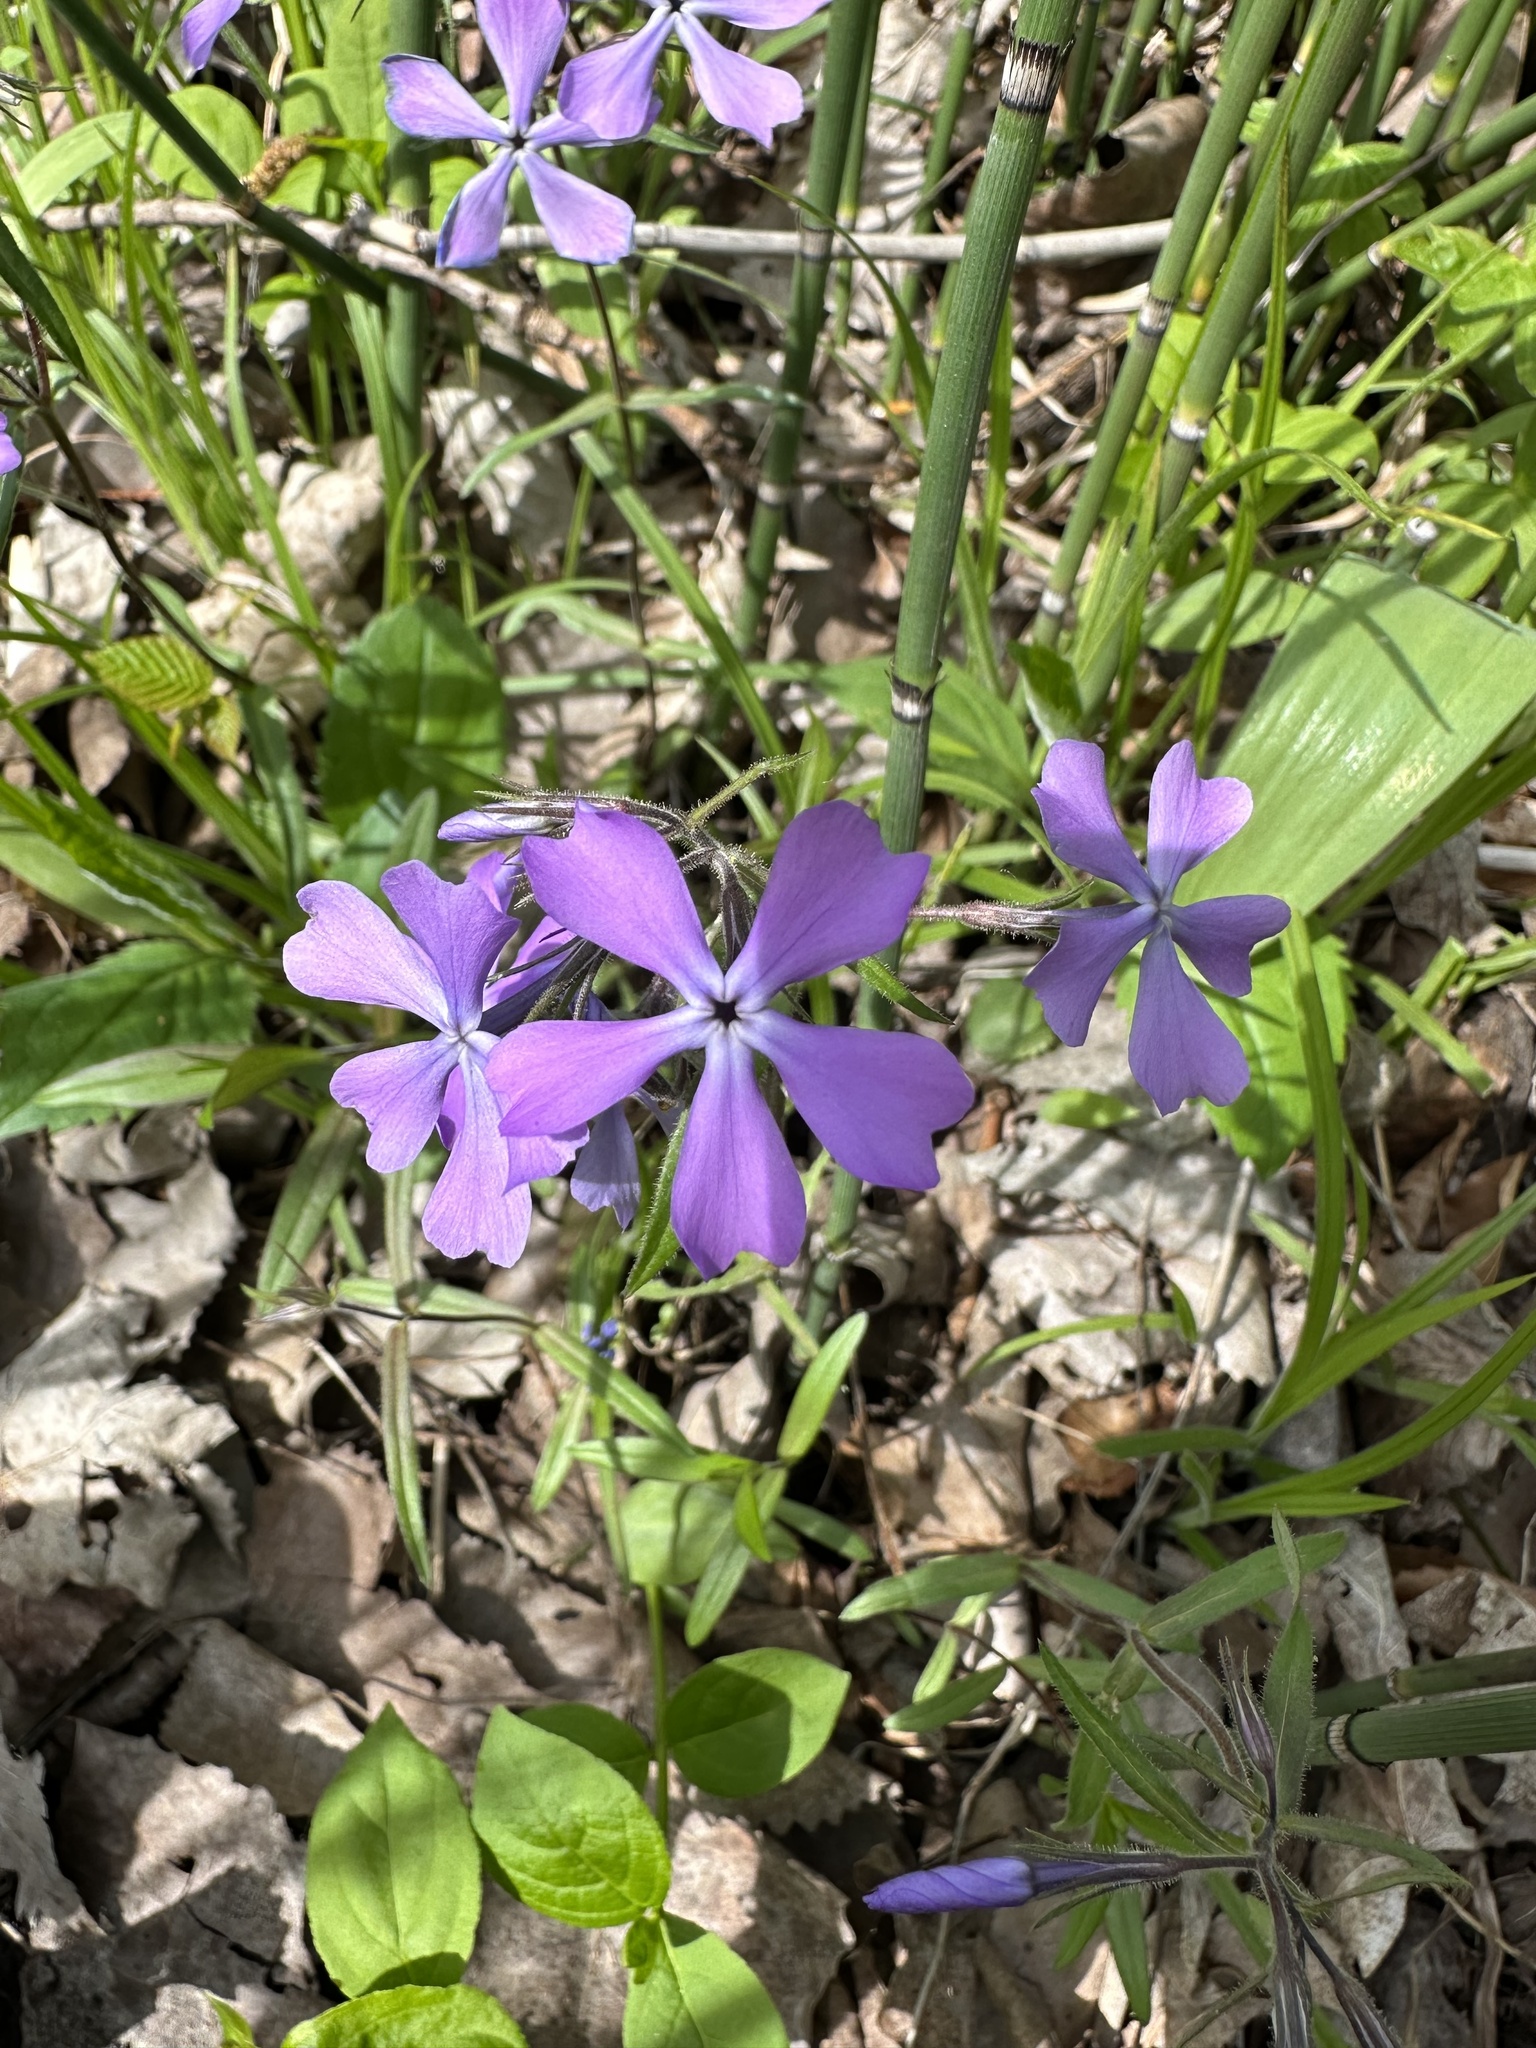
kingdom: Plantae
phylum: Tracheophyta
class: Magnoliopsida
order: Ericales
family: Polemoniaceae
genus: Phlox
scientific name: Phlox divaricata
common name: Blue phlox
